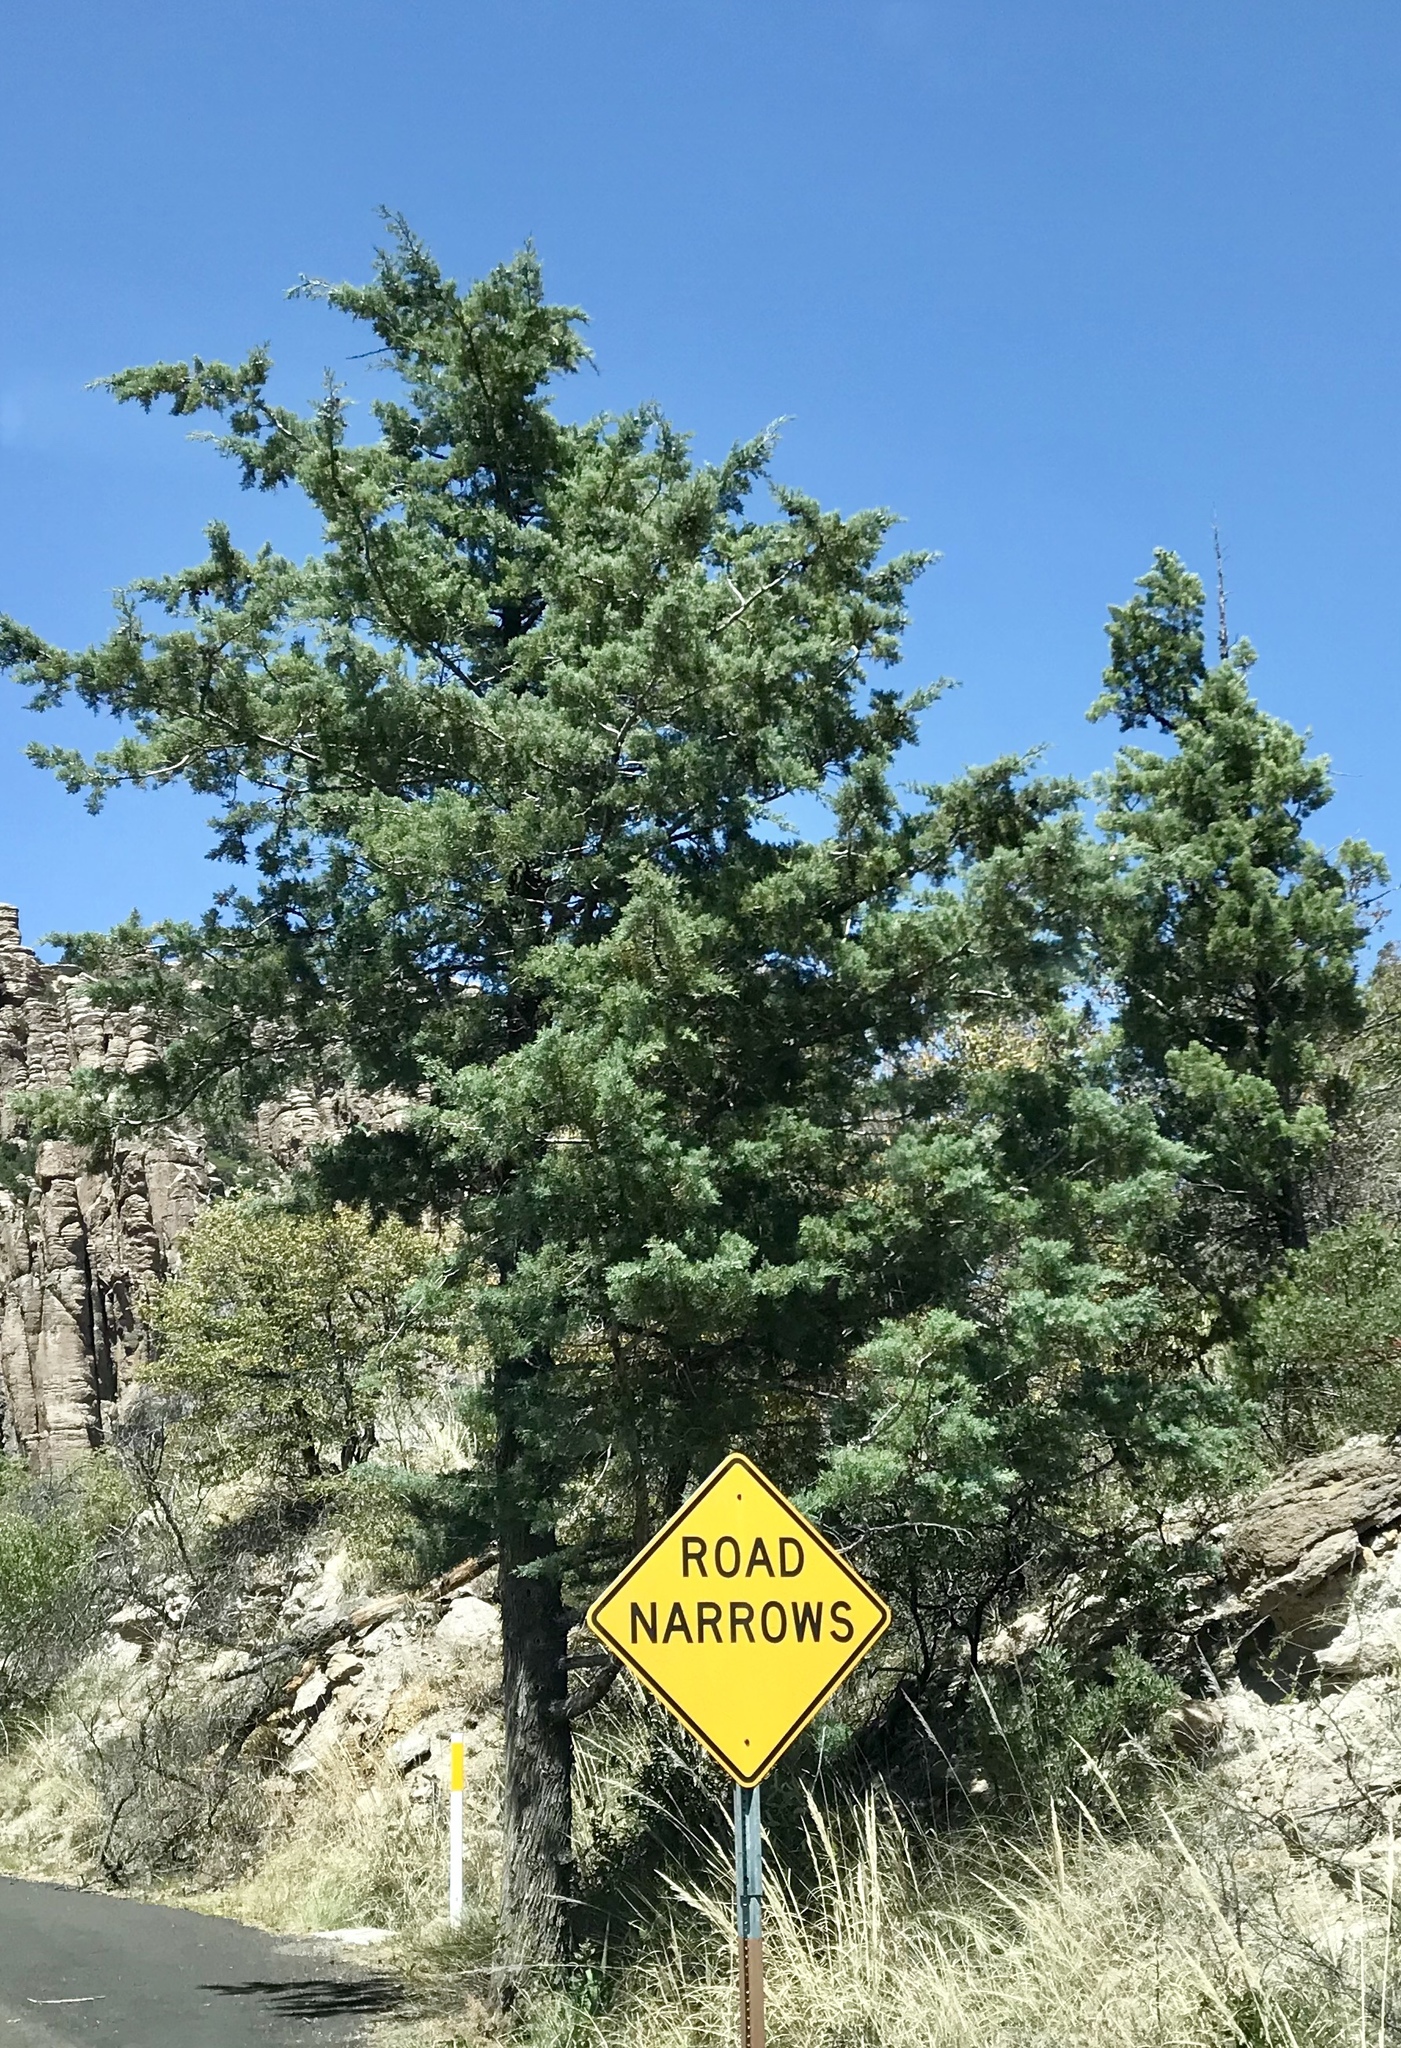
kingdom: Plantae
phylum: Tracheophyta
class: Pinopsida
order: Pinales
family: Cupressaceae
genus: Cupressus
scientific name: Cupressus arizonica
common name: Arizona cypress
